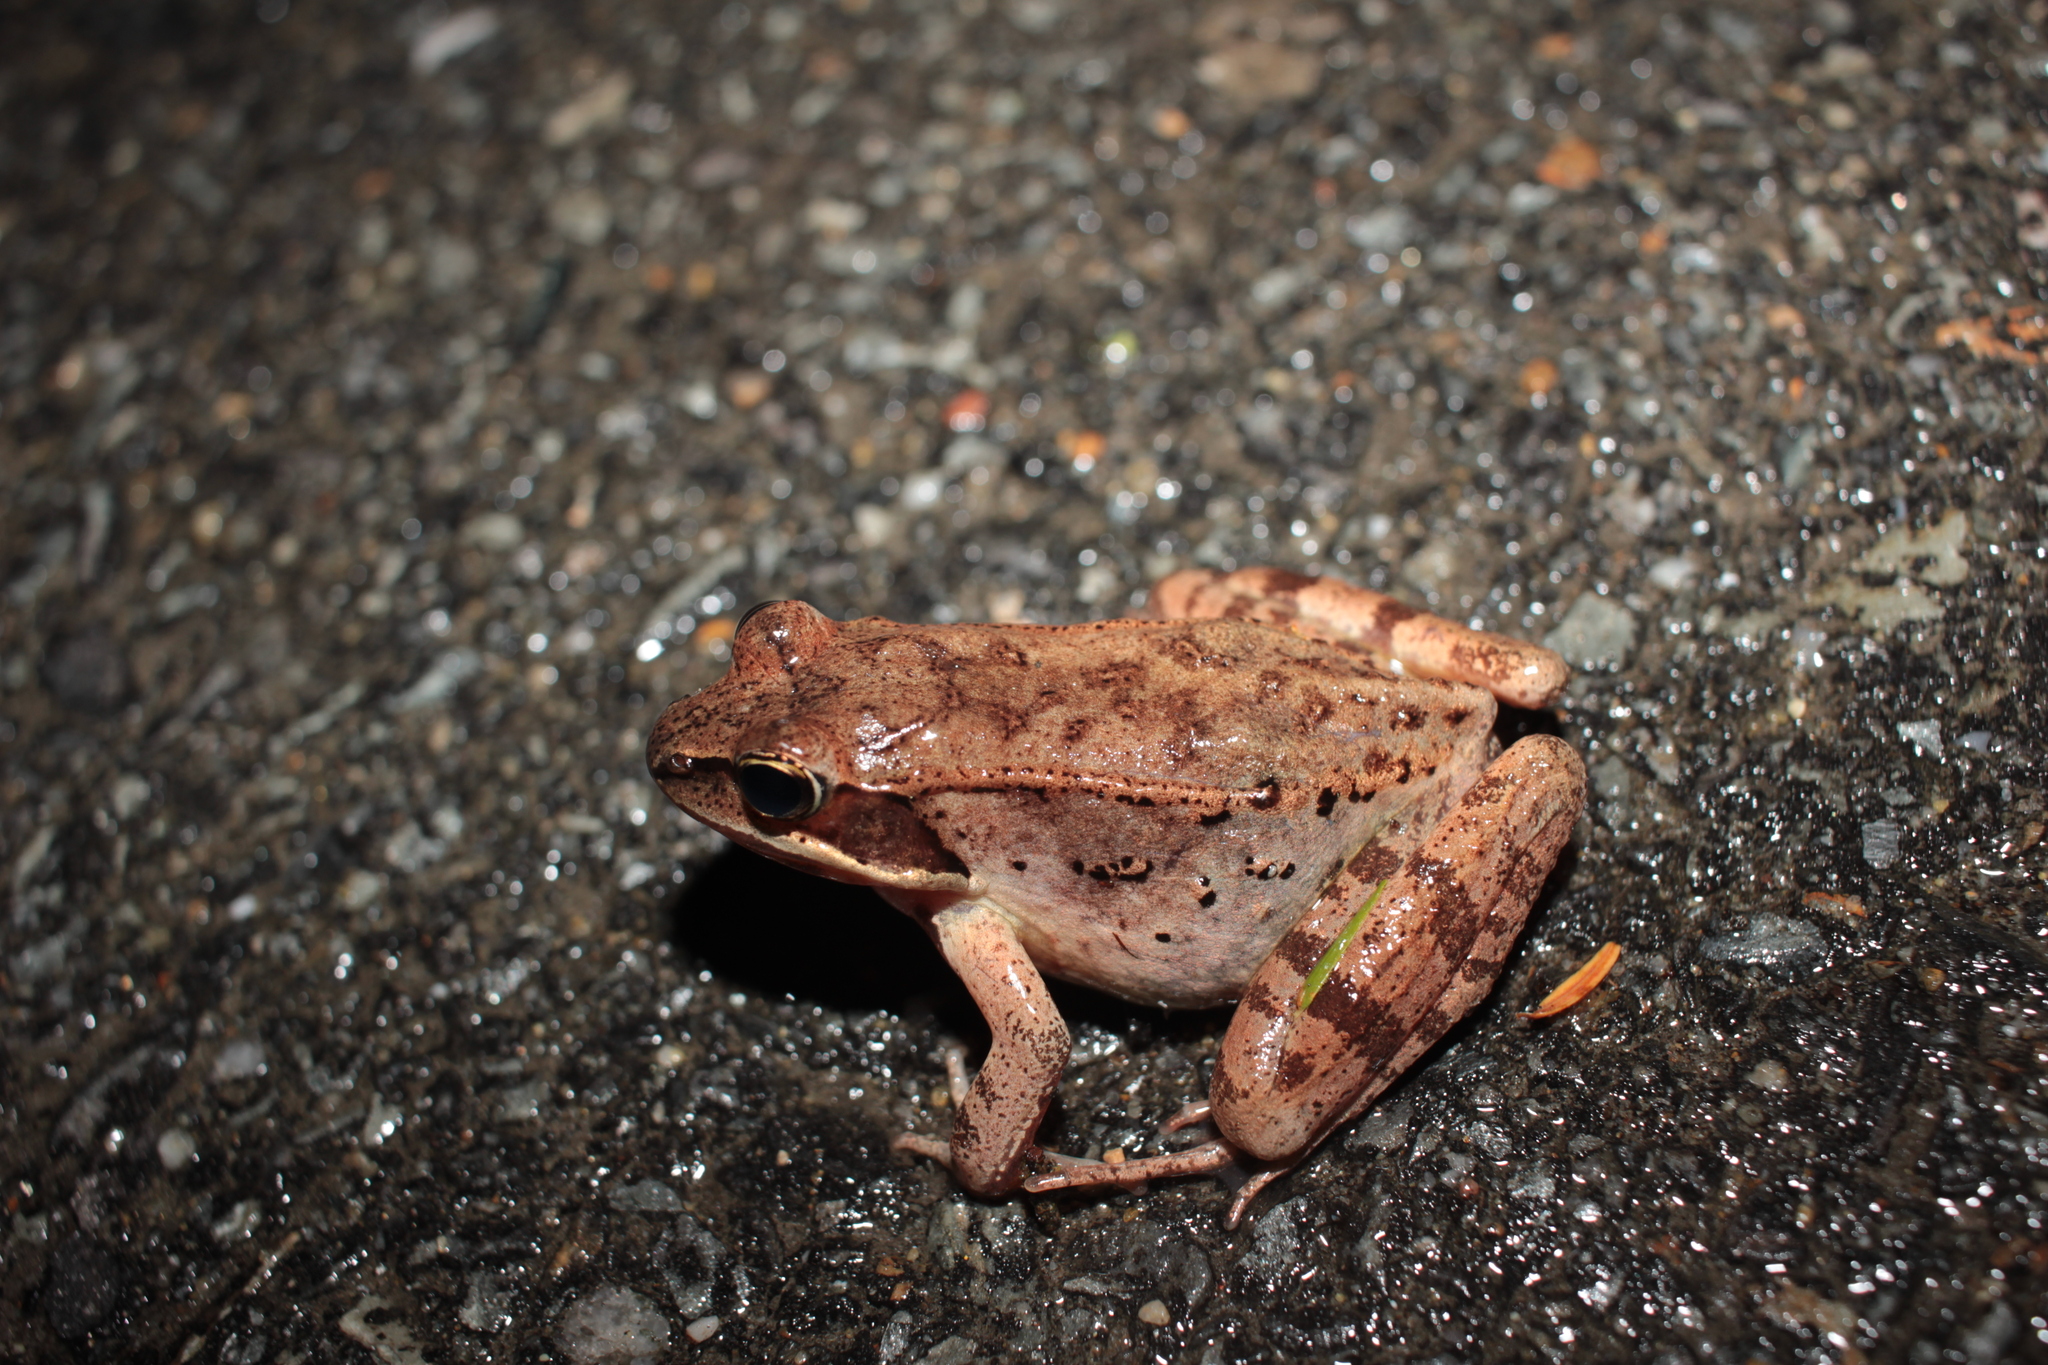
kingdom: Animalia
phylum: Chordata
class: Amphibia
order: Anura
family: Ranidae
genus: Lithobates
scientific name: Lithobates sylvaticus
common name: Wood frog
